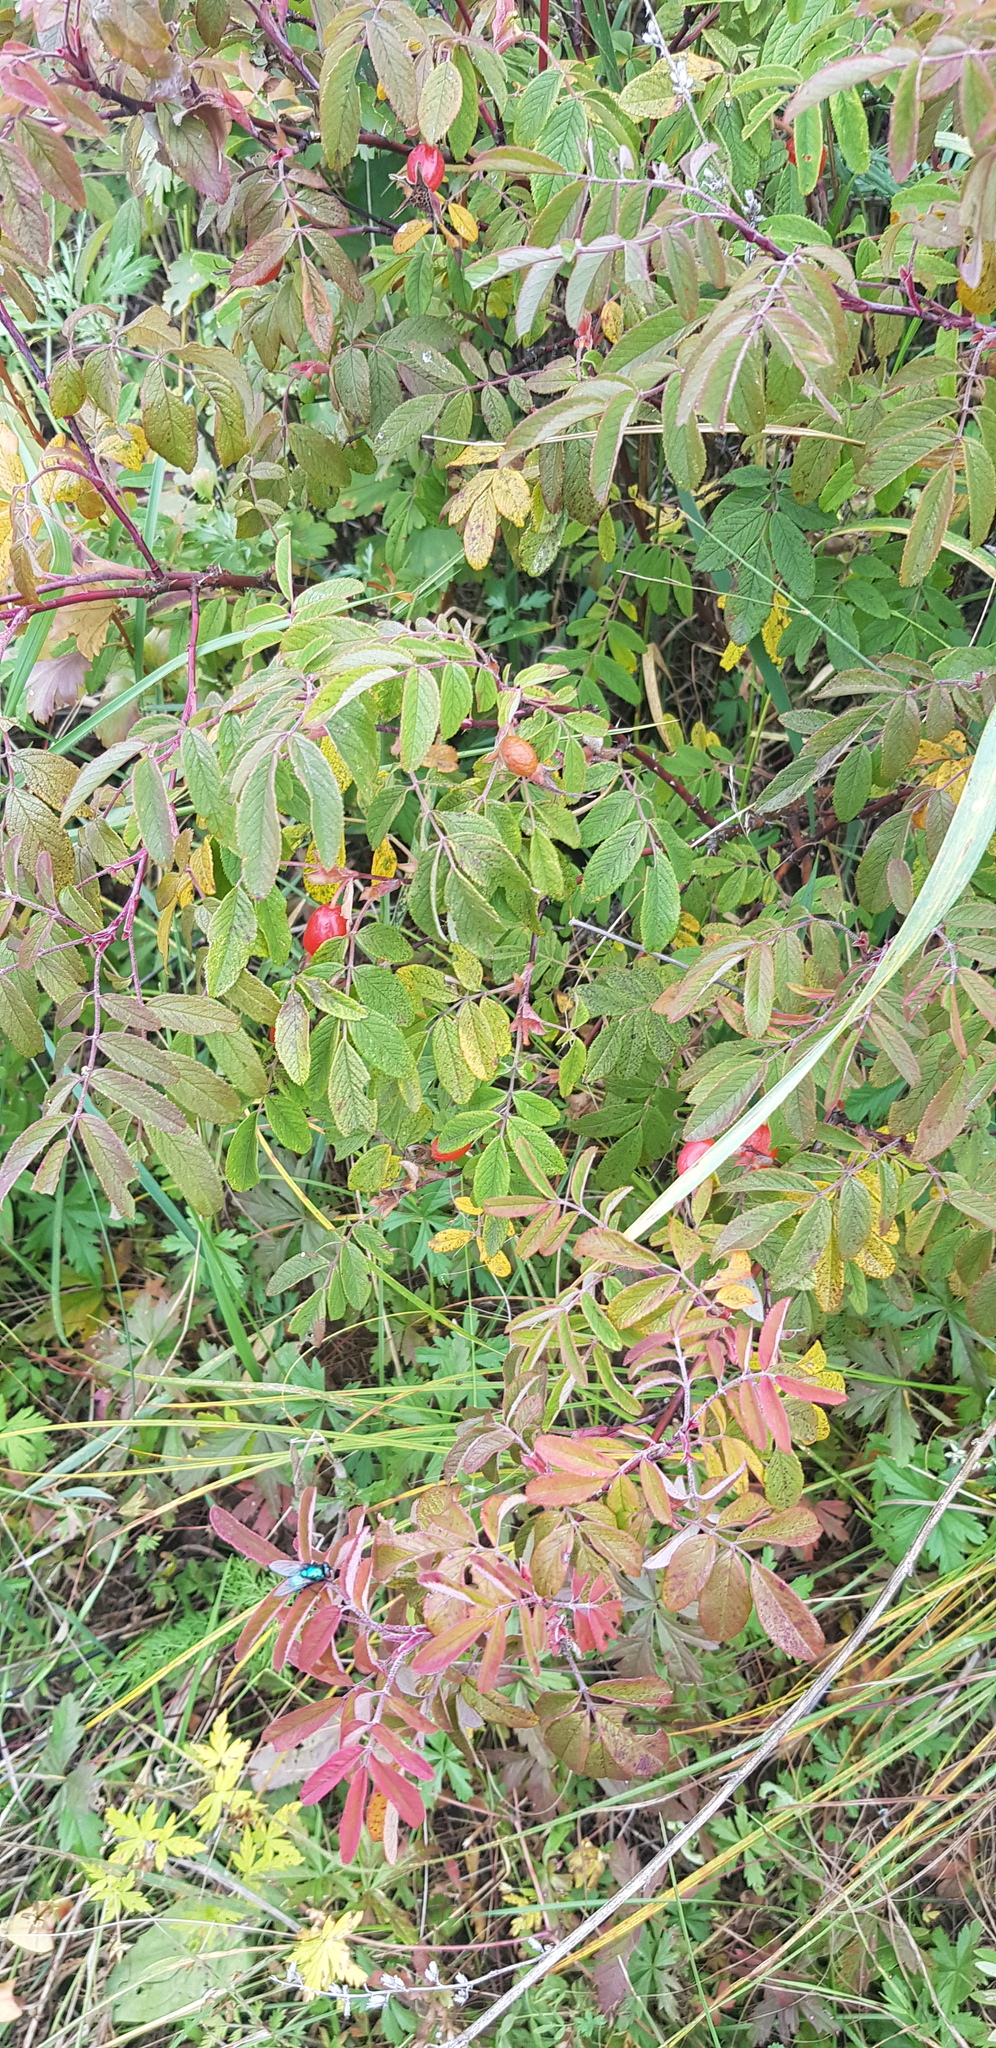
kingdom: Plantae
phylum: Tracheophyta
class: Magnoliopsida
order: Rosales
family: Rosaceae
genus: Rosa
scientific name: Rosa acicularis
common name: Prickly rose
